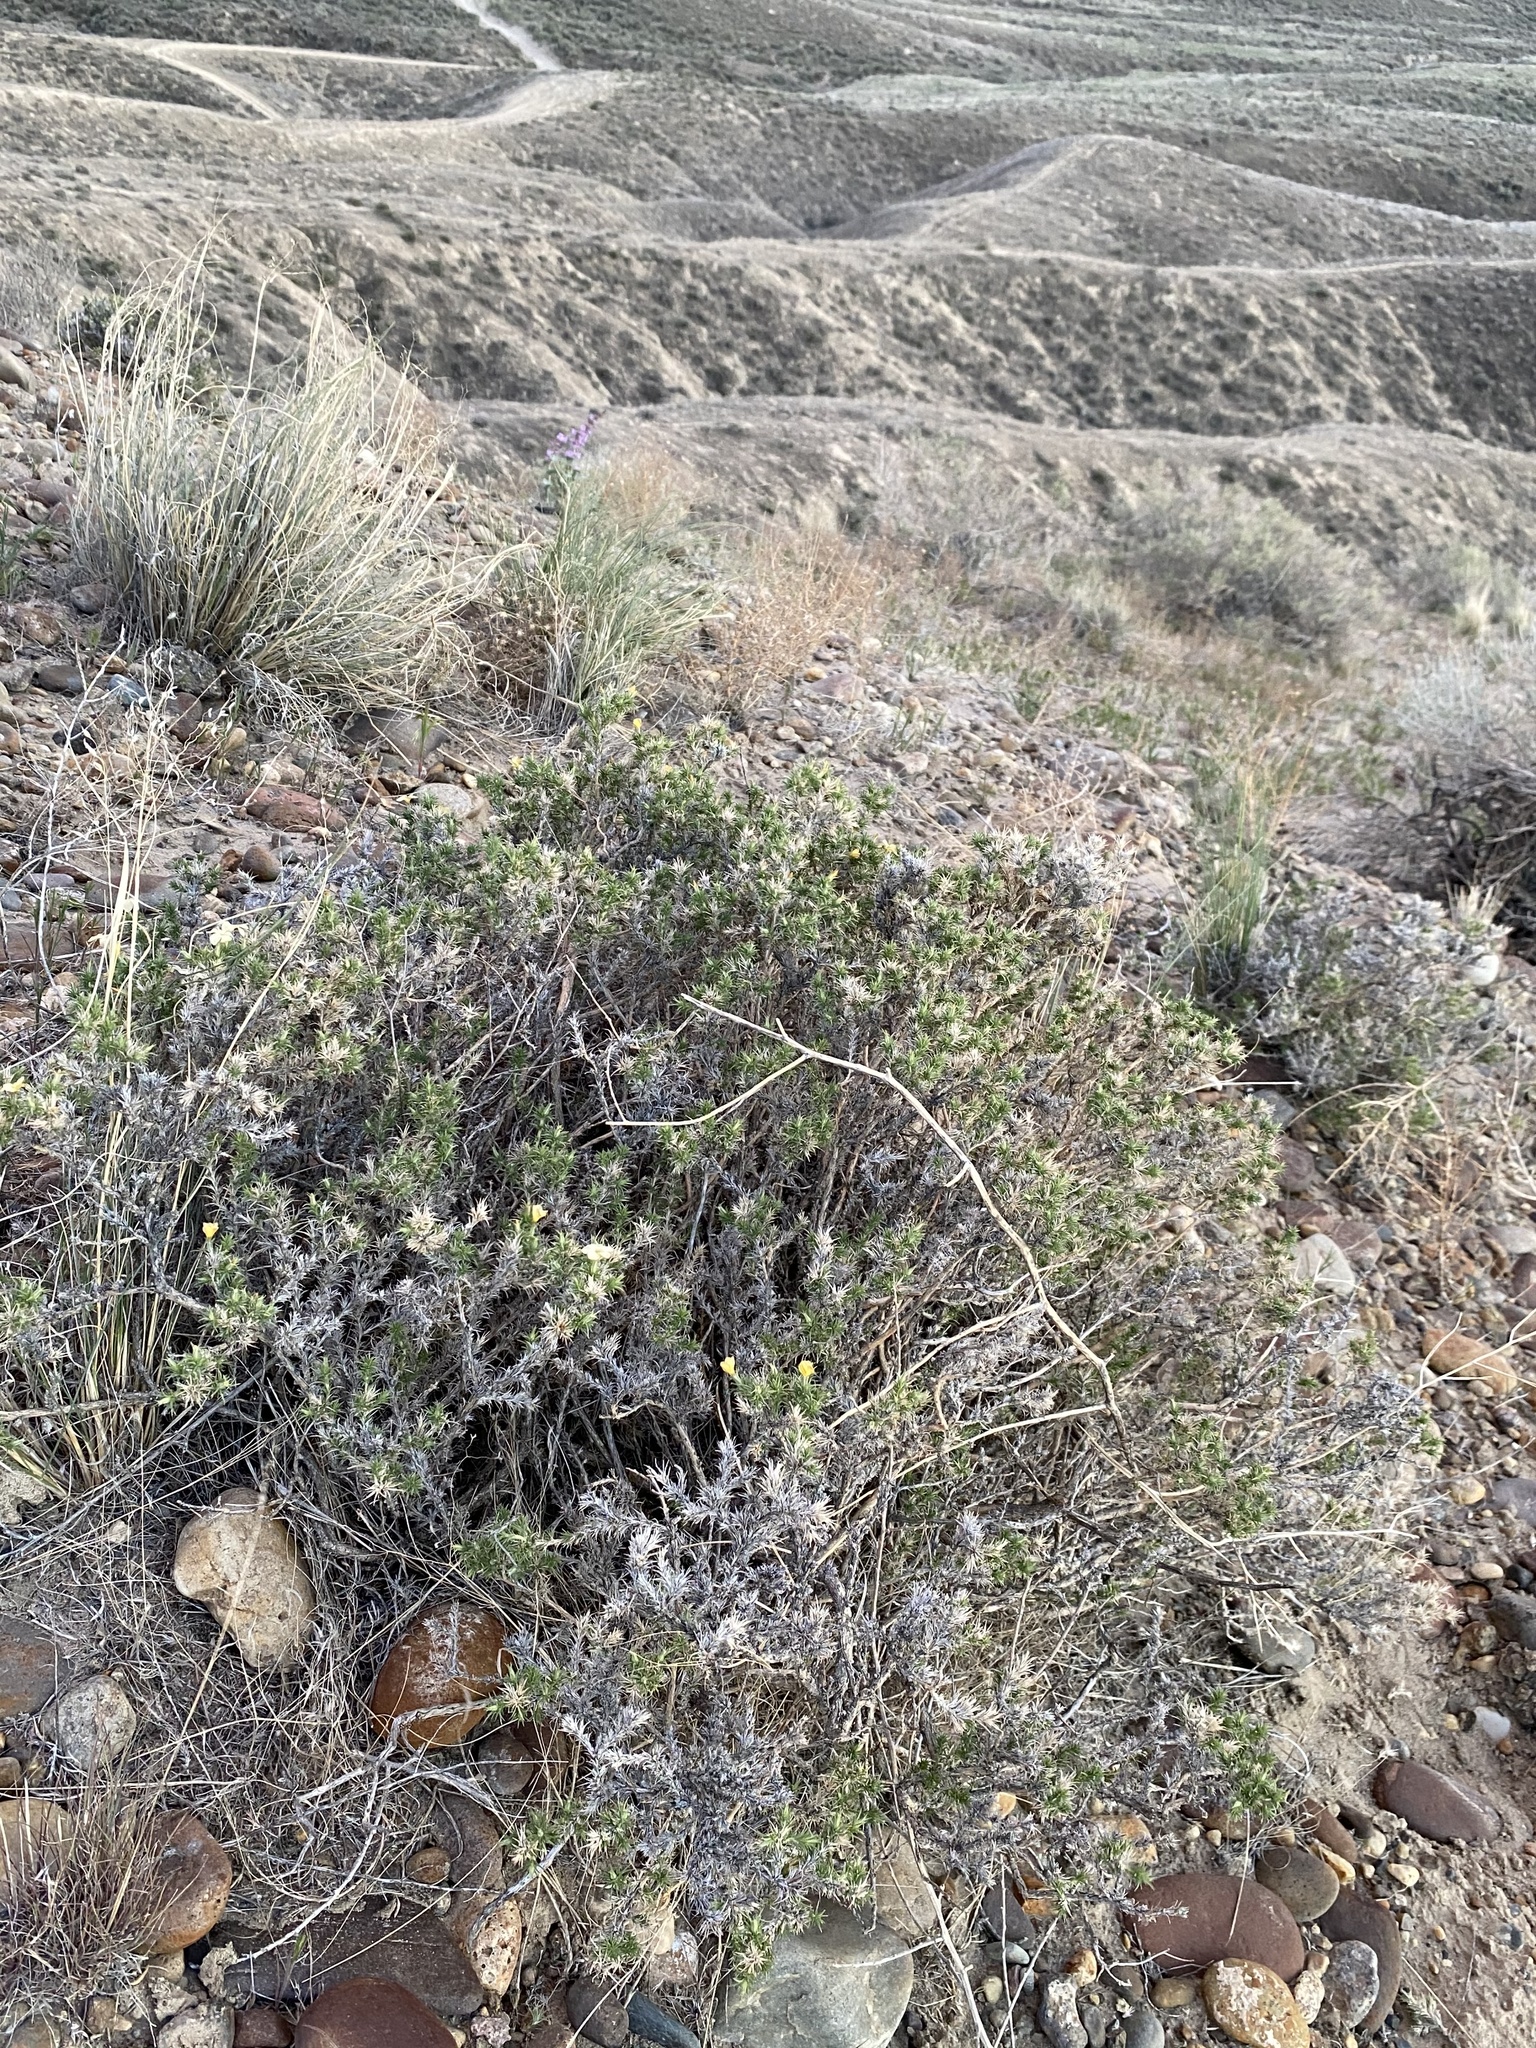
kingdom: Plantae
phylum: Tracheophyta
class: Magnoliopsida
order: Ericales
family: Polemoniaceae
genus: Linanthus
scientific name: Linanthus pungens
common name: Granite prickly phlox
